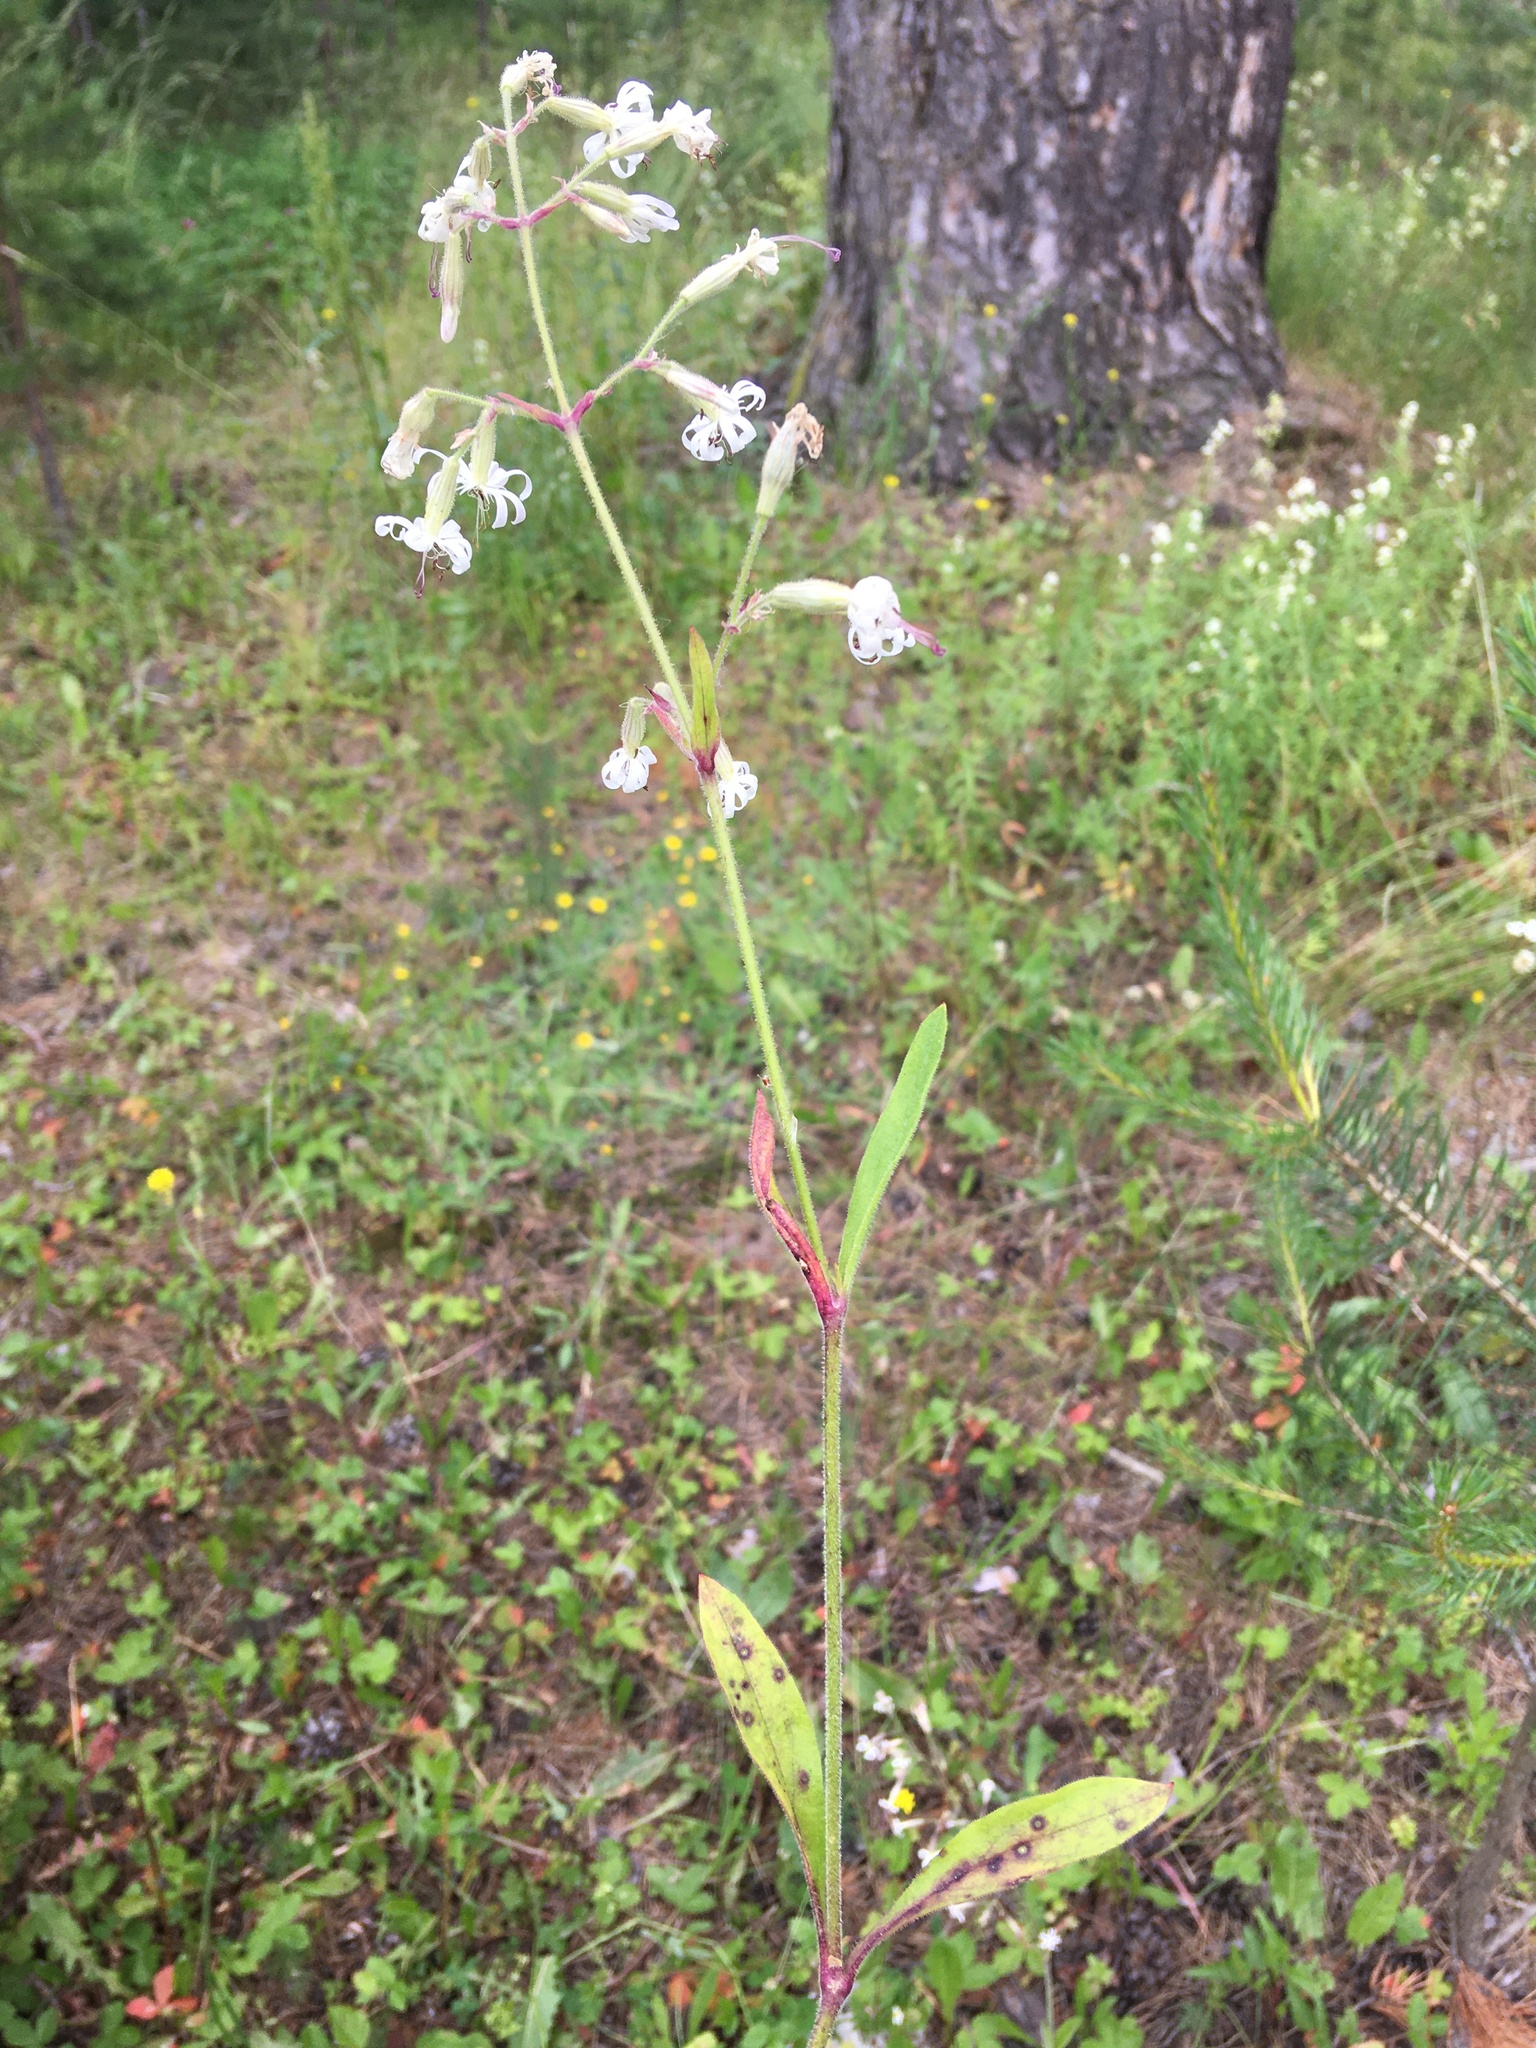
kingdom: Plantae
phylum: Tracheophyta
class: Magnoliopsida
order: Caryophyllales
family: Caryophyllaceae
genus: Silene
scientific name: Silene nutans
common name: Nottingham catchfly
